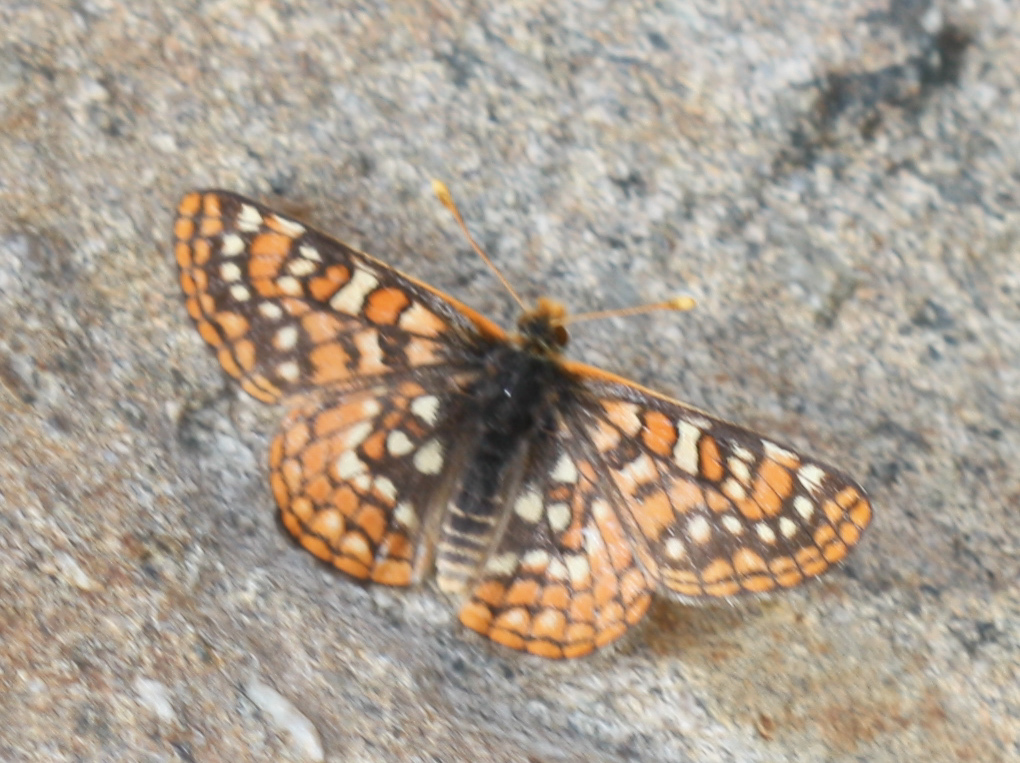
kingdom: Animalia
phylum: Arthropoda
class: Insecta
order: Lepidoptera
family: Nymphalidae
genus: Occidryas
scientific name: Occidryas editha
